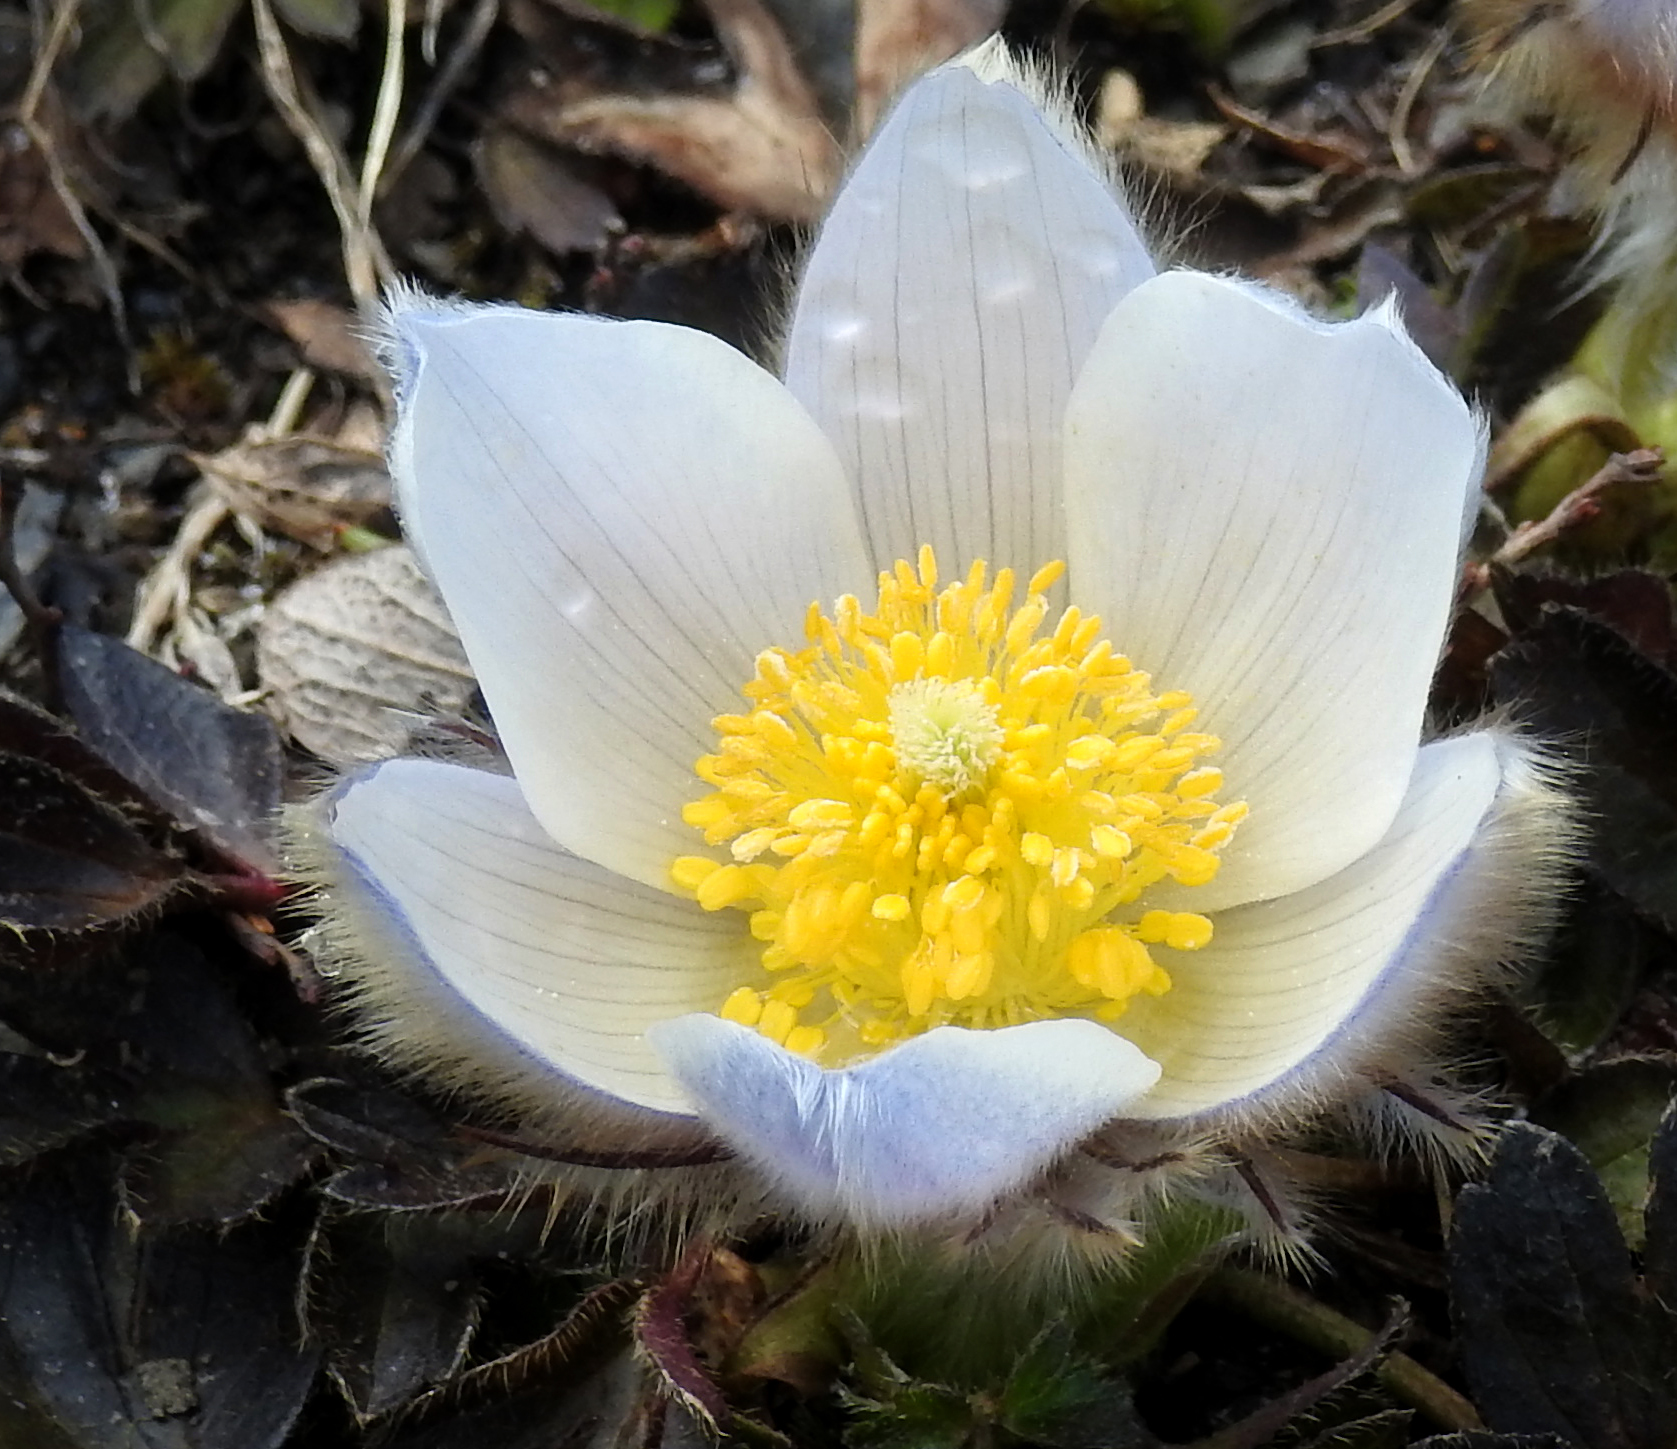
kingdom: Plantae
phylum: Tracheophyta
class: Magnoliopsida
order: Ranunculales
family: Ranunculaceae
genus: Pulsatilla
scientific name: Pulsatilla vernalis
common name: Spring pasque flower
